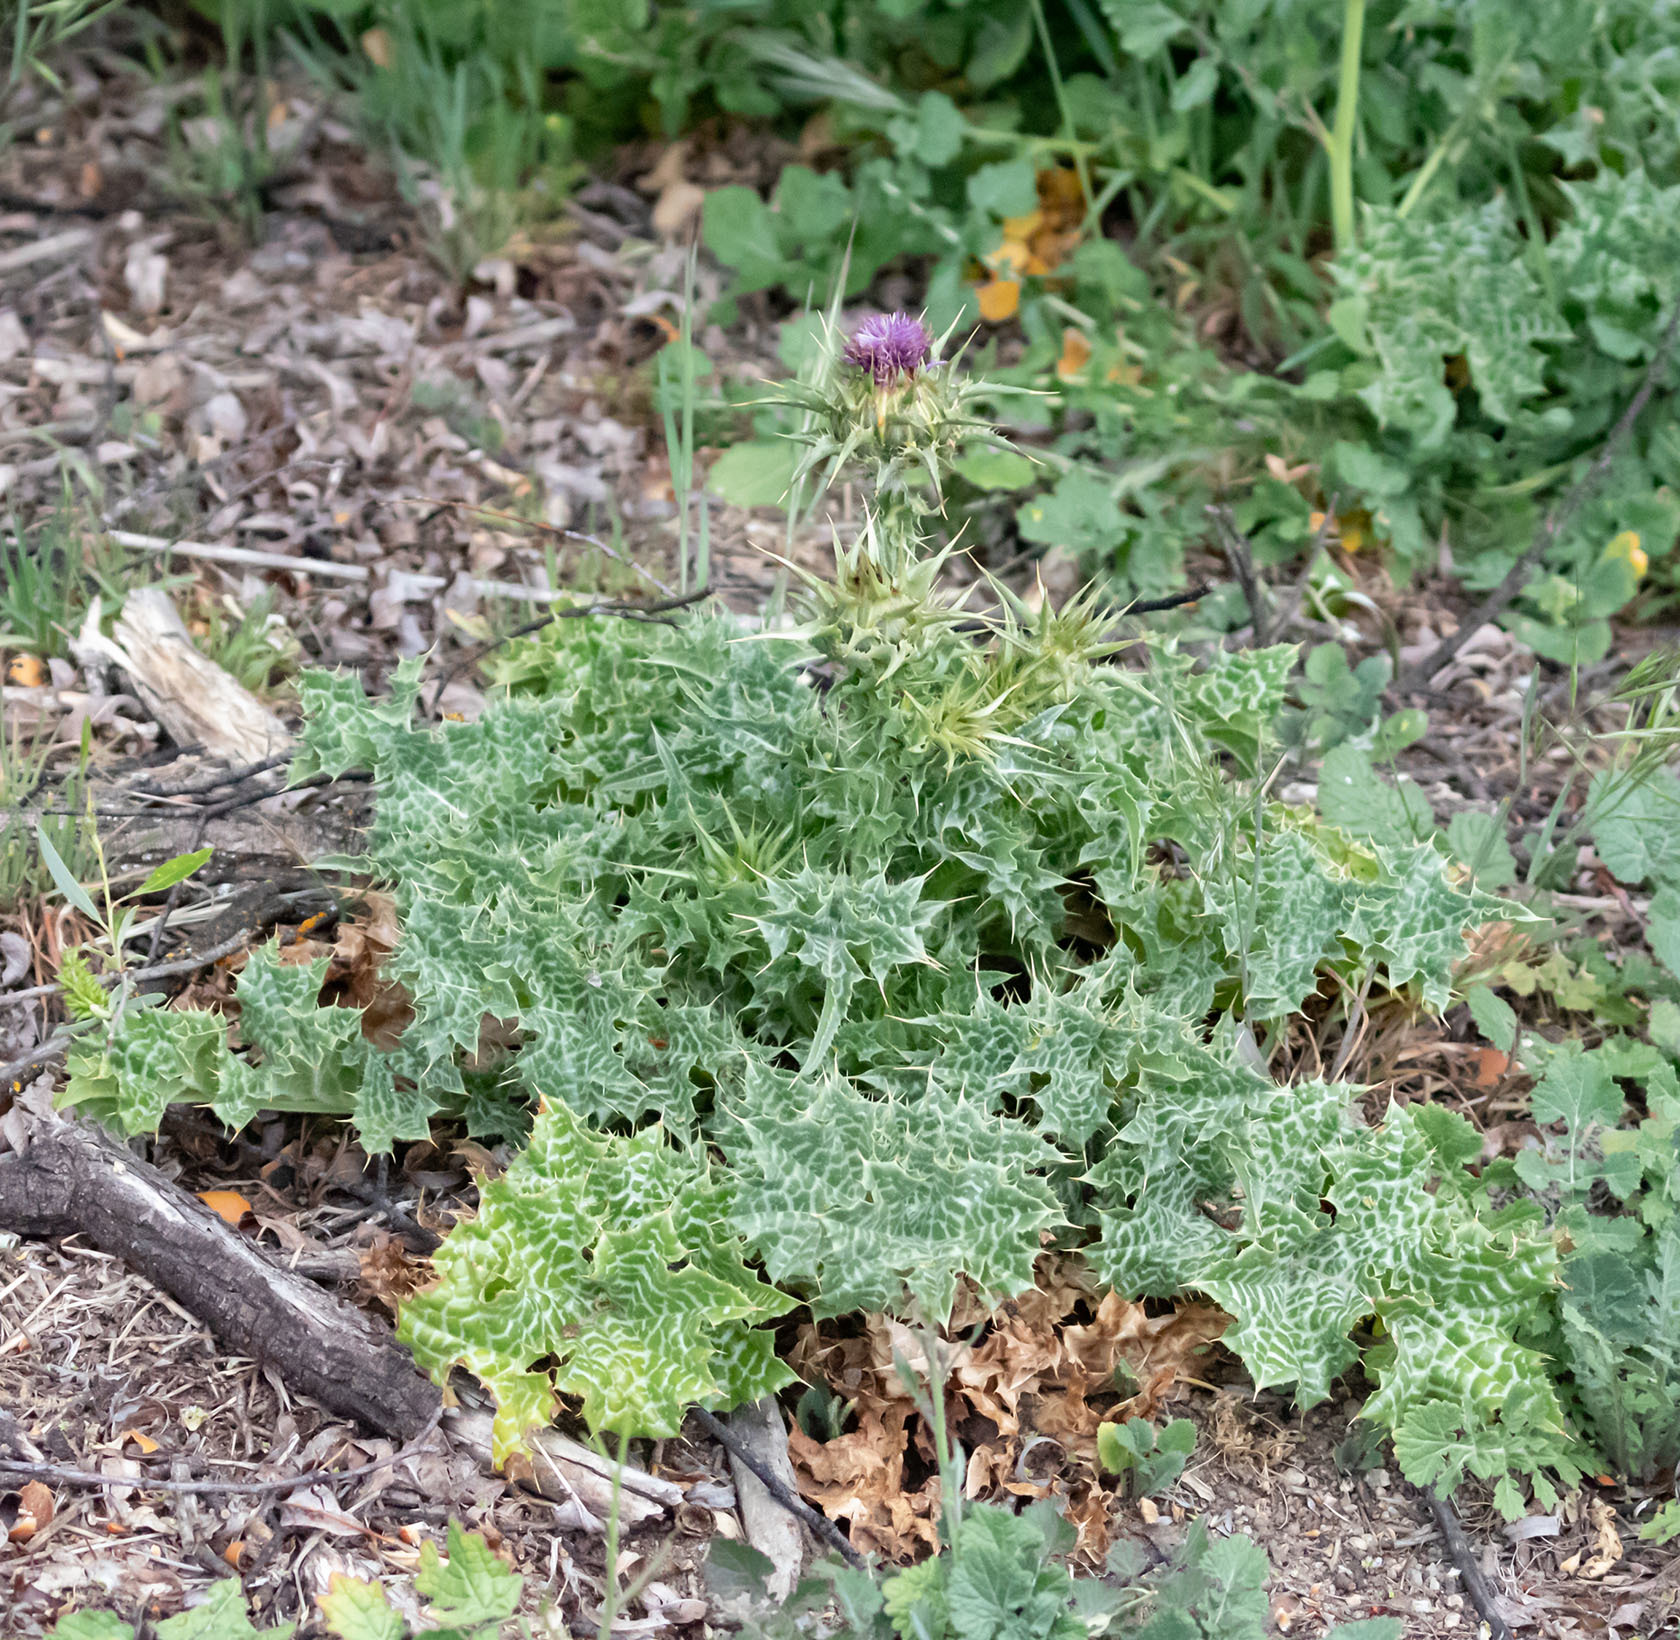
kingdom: Plantae
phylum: Tracheophyta
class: Magnoliopsida
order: Asterales
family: Asteraceae
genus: Silybum
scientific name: Silybum marianum
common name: Milk thistle
